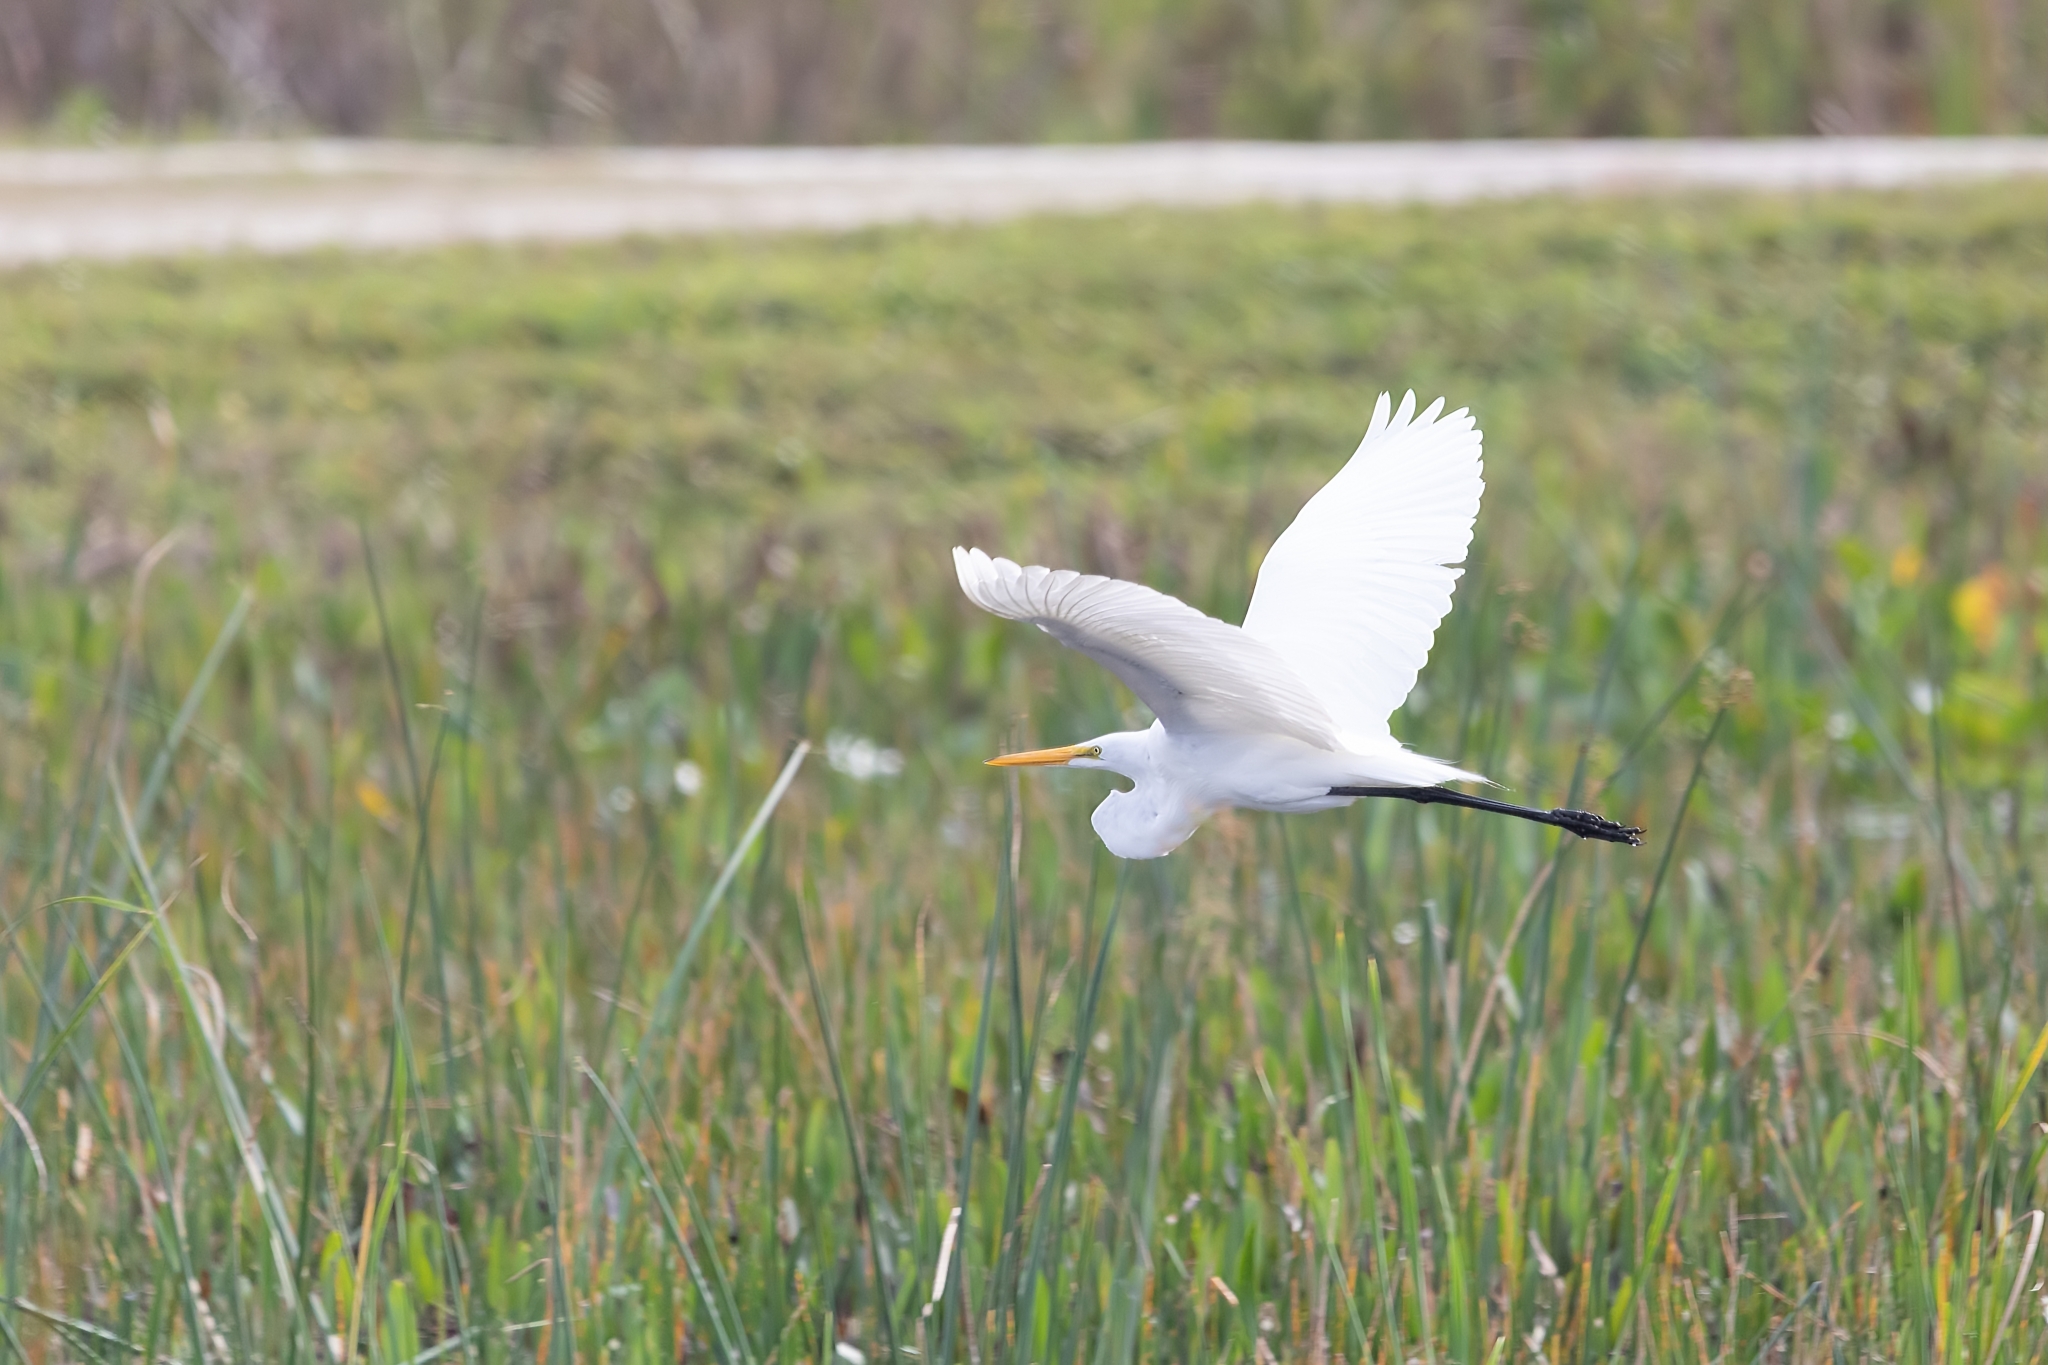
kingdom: Animalia
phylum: Chordata
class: Aves
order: Pelecaniformes
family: Ardeidae
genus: Ardea
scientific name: Ardea alba
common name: Great egret
